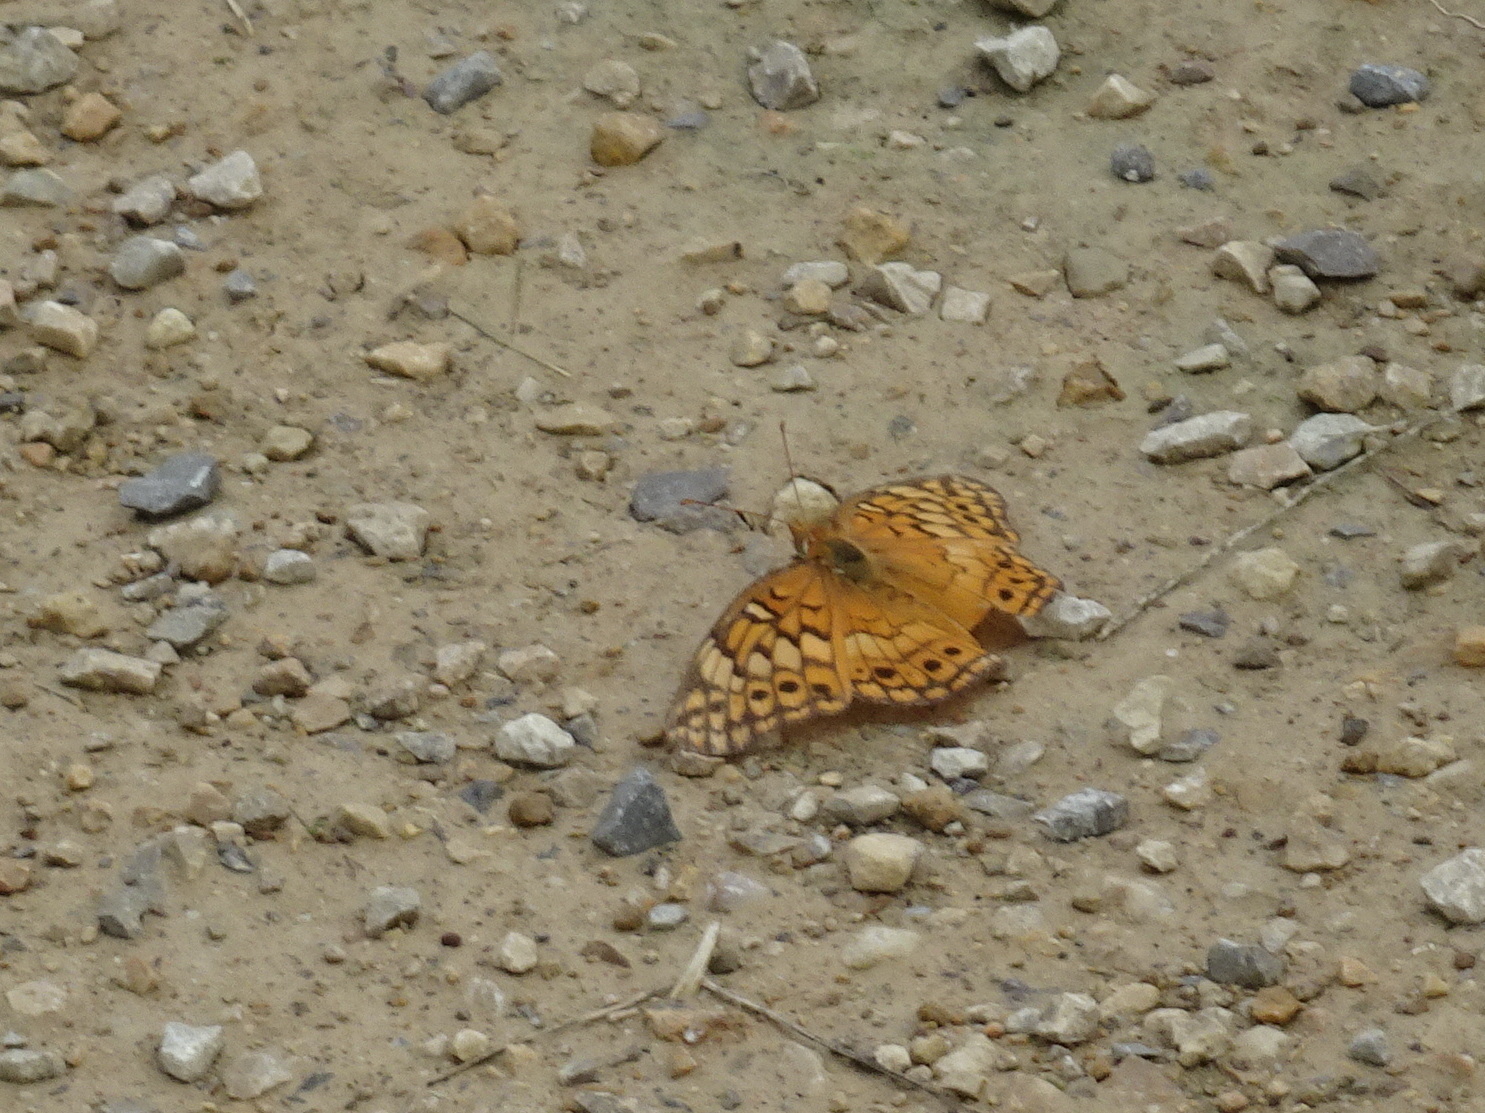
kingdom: Animalia
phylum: Arthropoda
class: Insecta
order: Lepidoptera
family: Nymphalidae
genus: Euptoieta
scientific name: Euptoieta claudia
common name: Variegated fritillary
